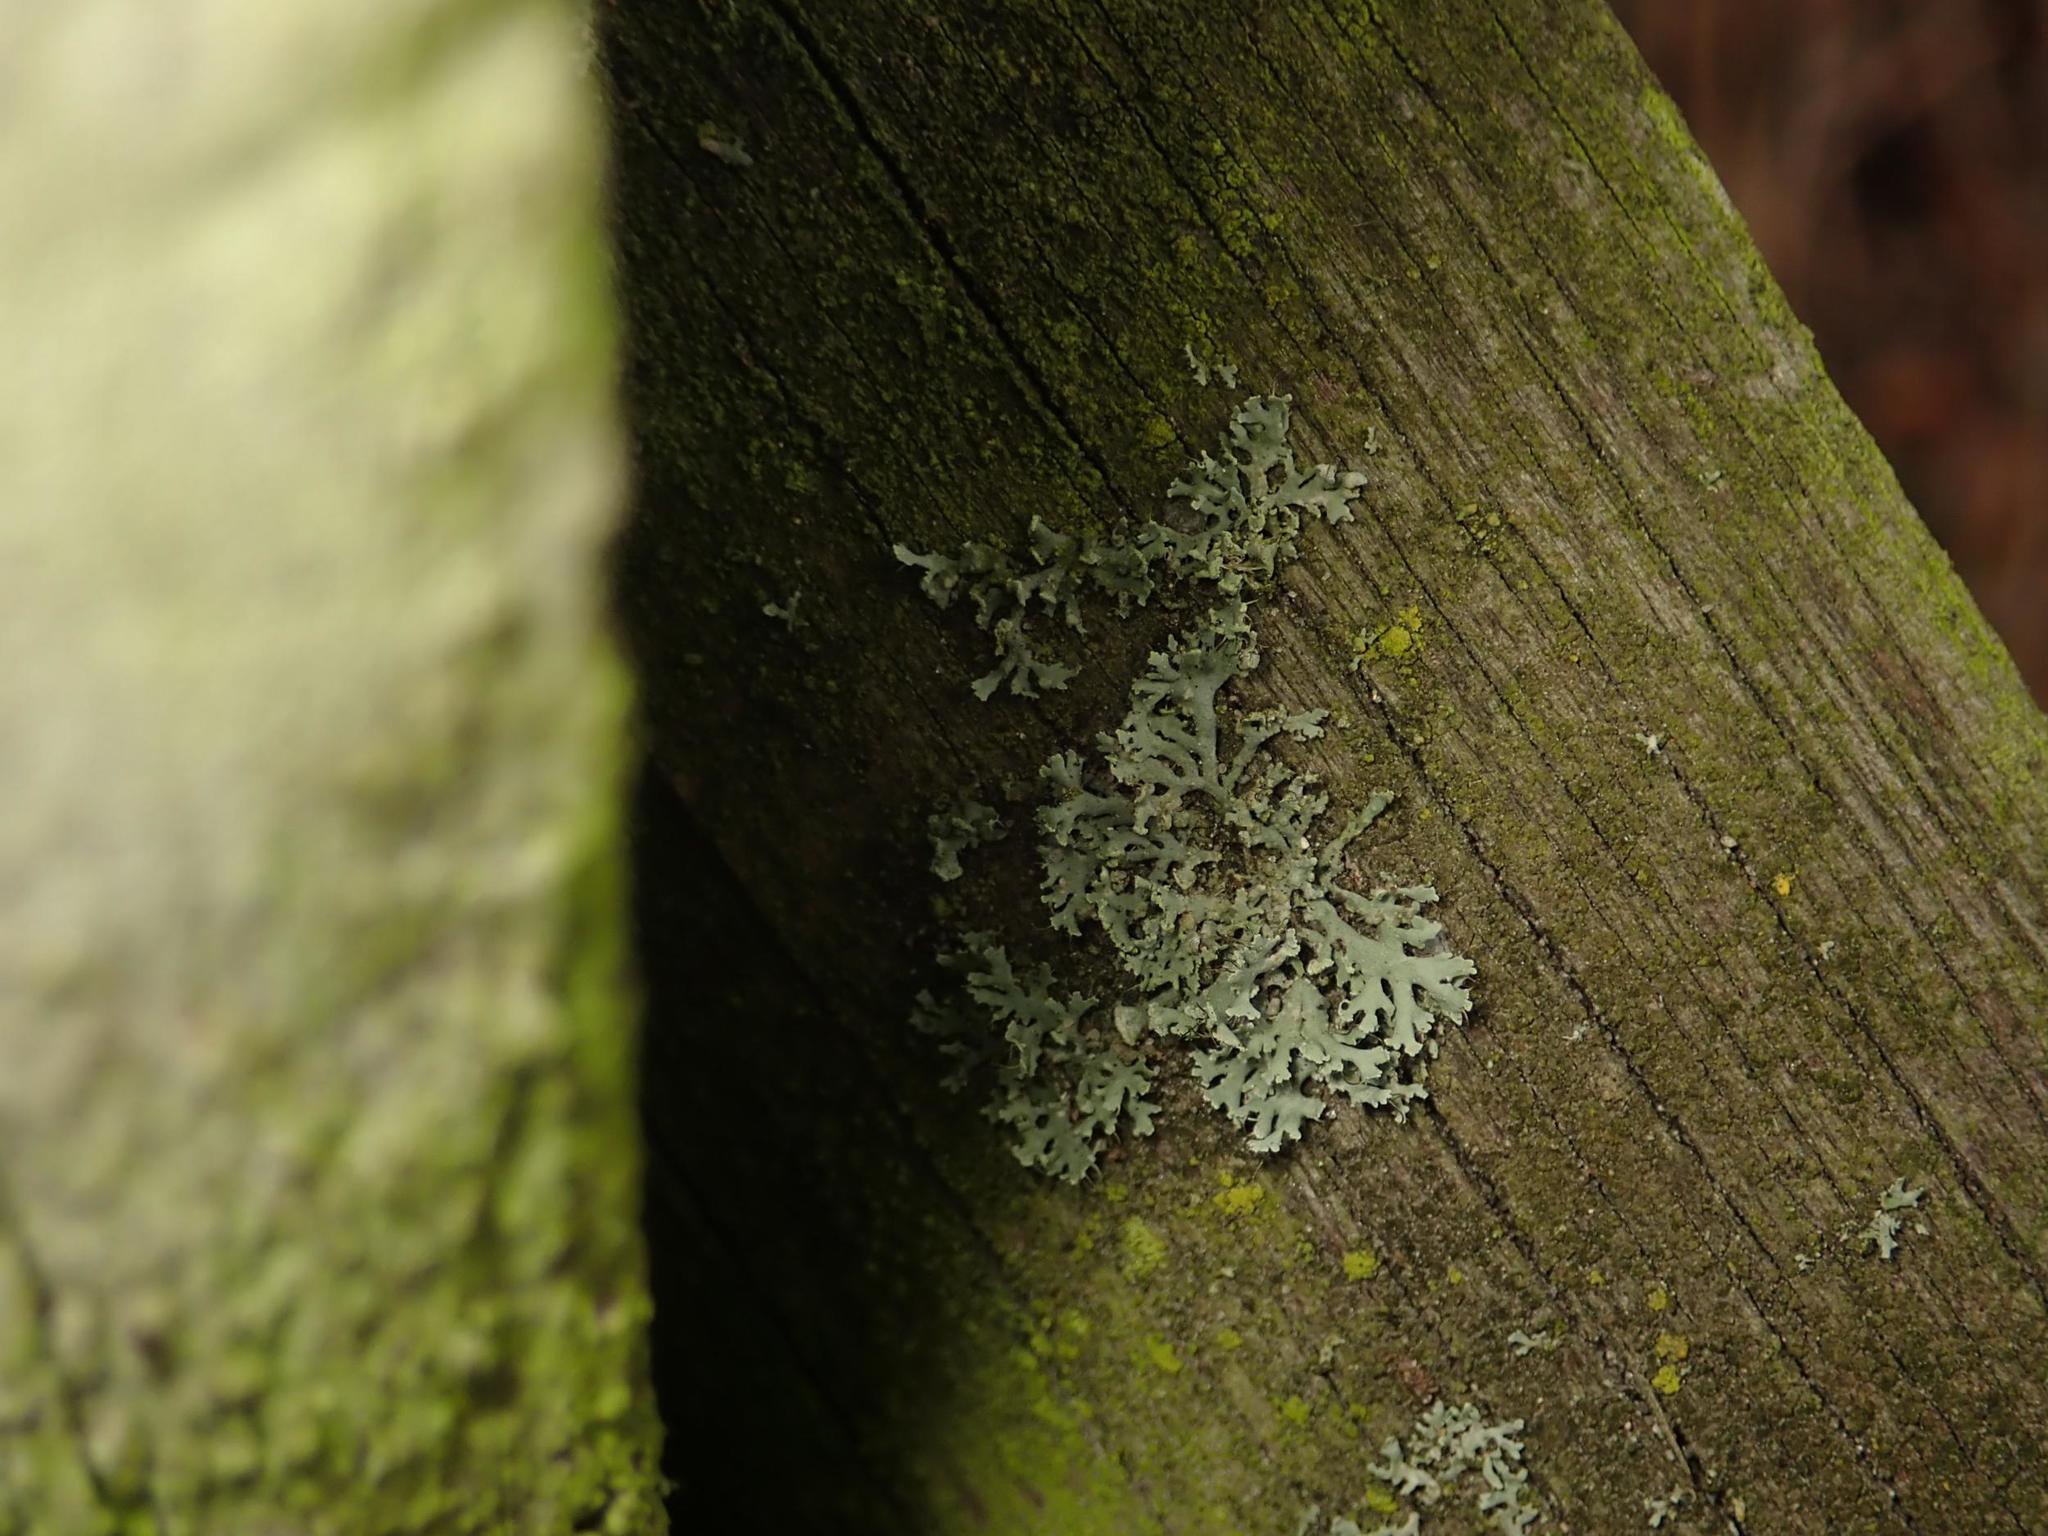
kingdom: Fungi
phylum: Ascomycota
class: Lecanoromycetes
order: Caliciales
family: Physciaceae
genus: Physcia
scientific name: Physcia tenella
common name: Fringed rosette lichen
